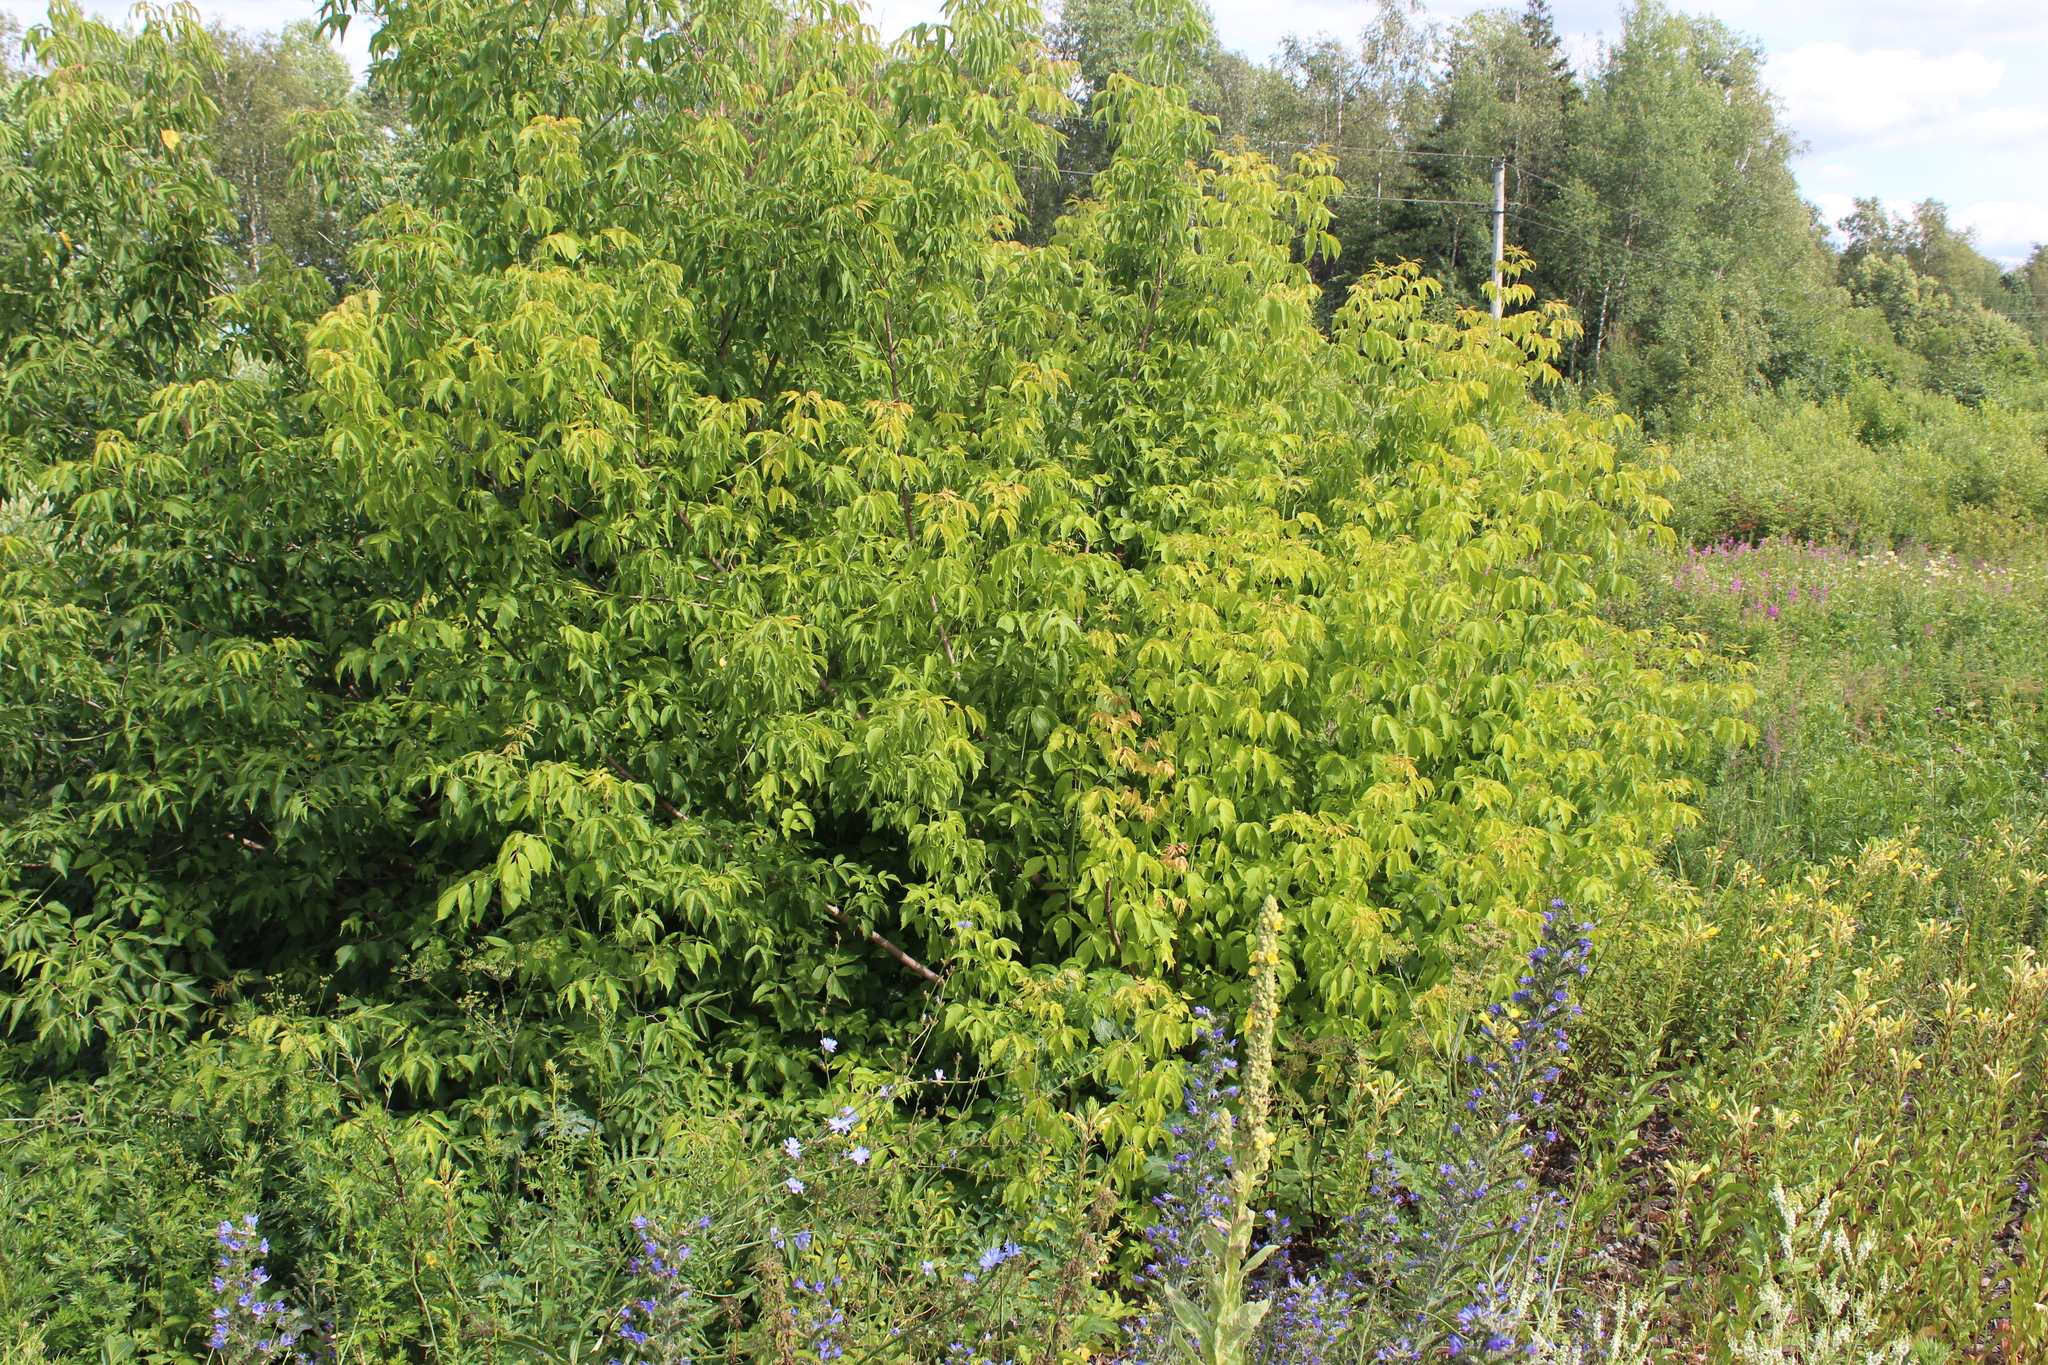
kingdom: Plantae
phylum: Tracheophyta
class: Magnoliopsida
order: Sapindales
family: Sapindaceae
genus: Acer
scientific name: Acer negundo
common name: Ashleaf maple
